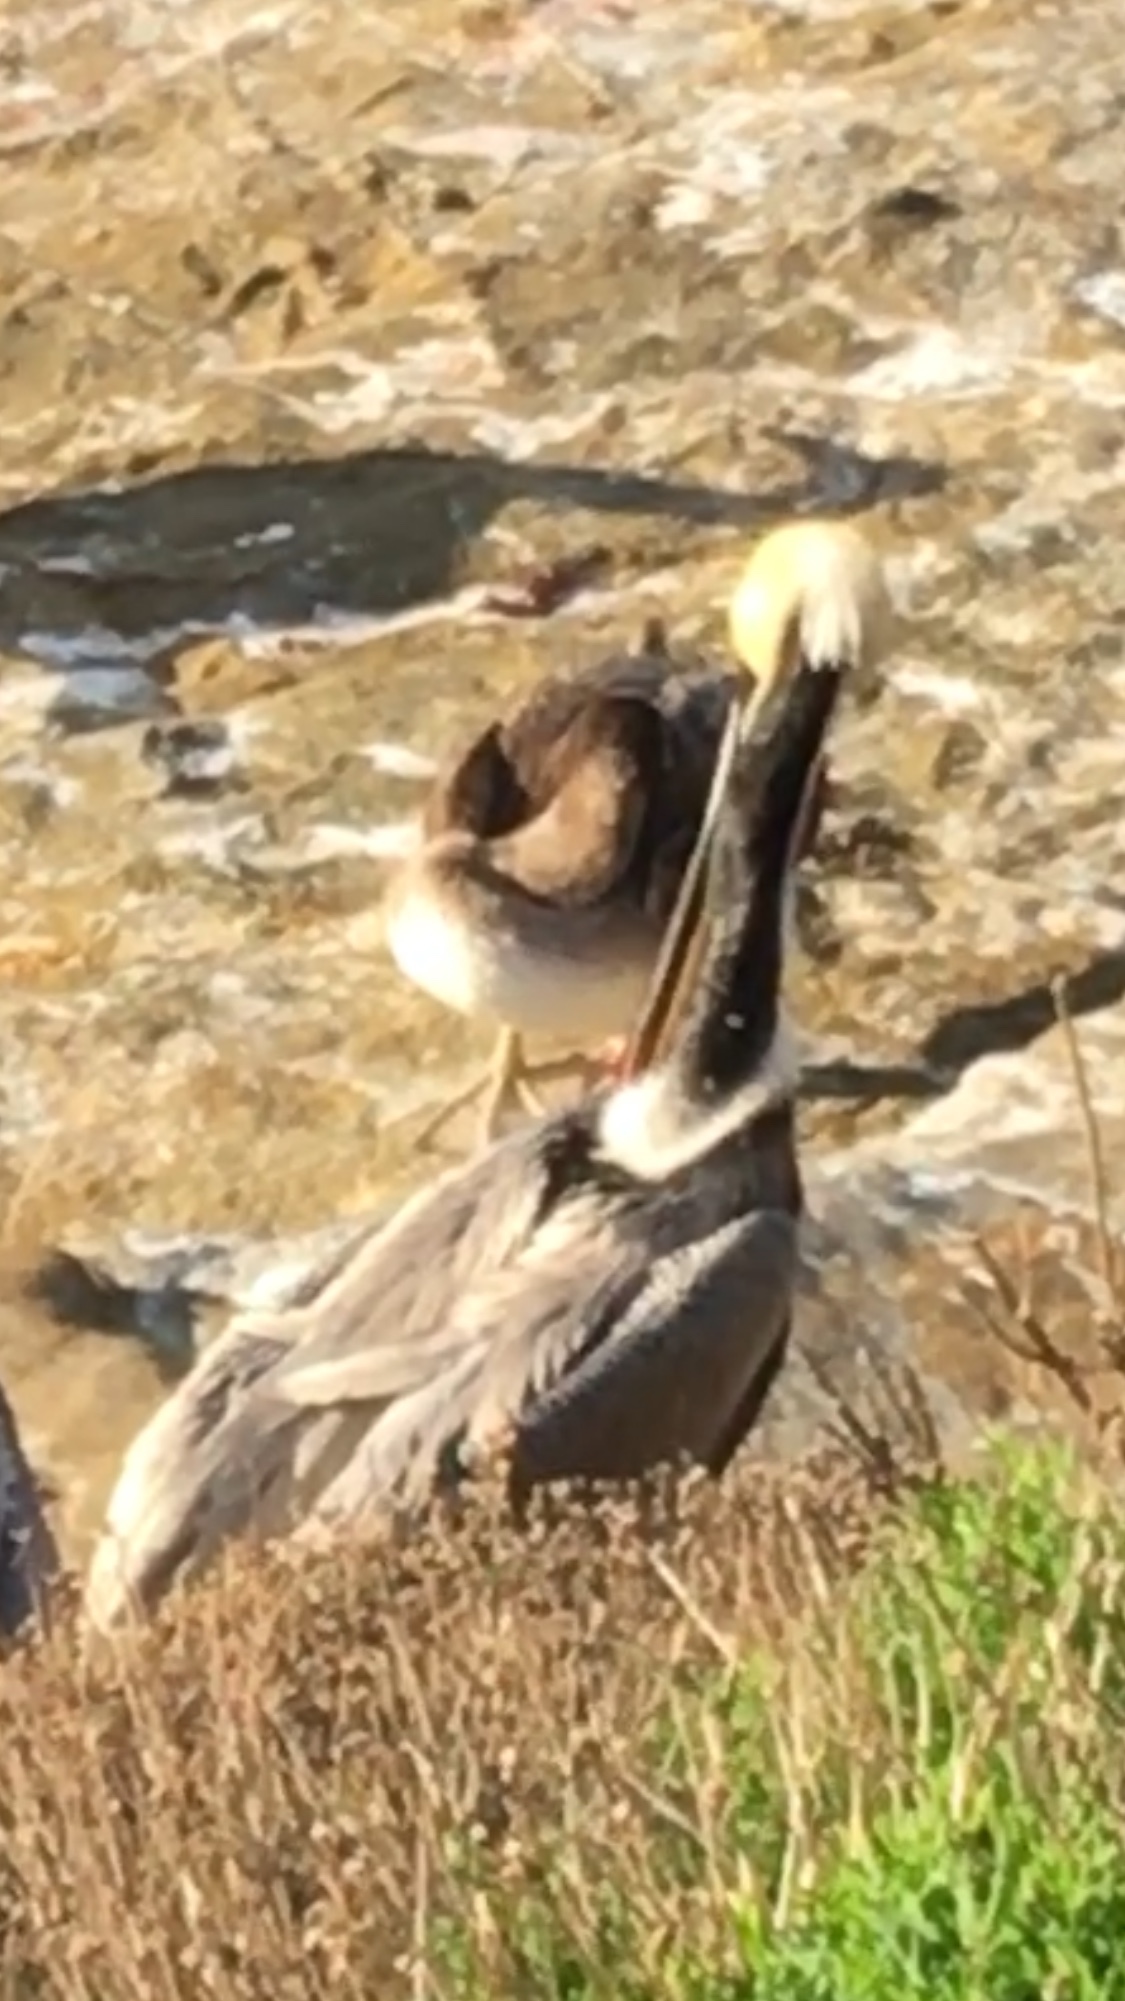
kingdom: Animalia
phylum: Chordata
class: Aves
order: Pelecaniformes
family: Pelecanidae
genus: Pelecanus
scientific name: Pelecanus occidentalis
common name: Brown pelican
